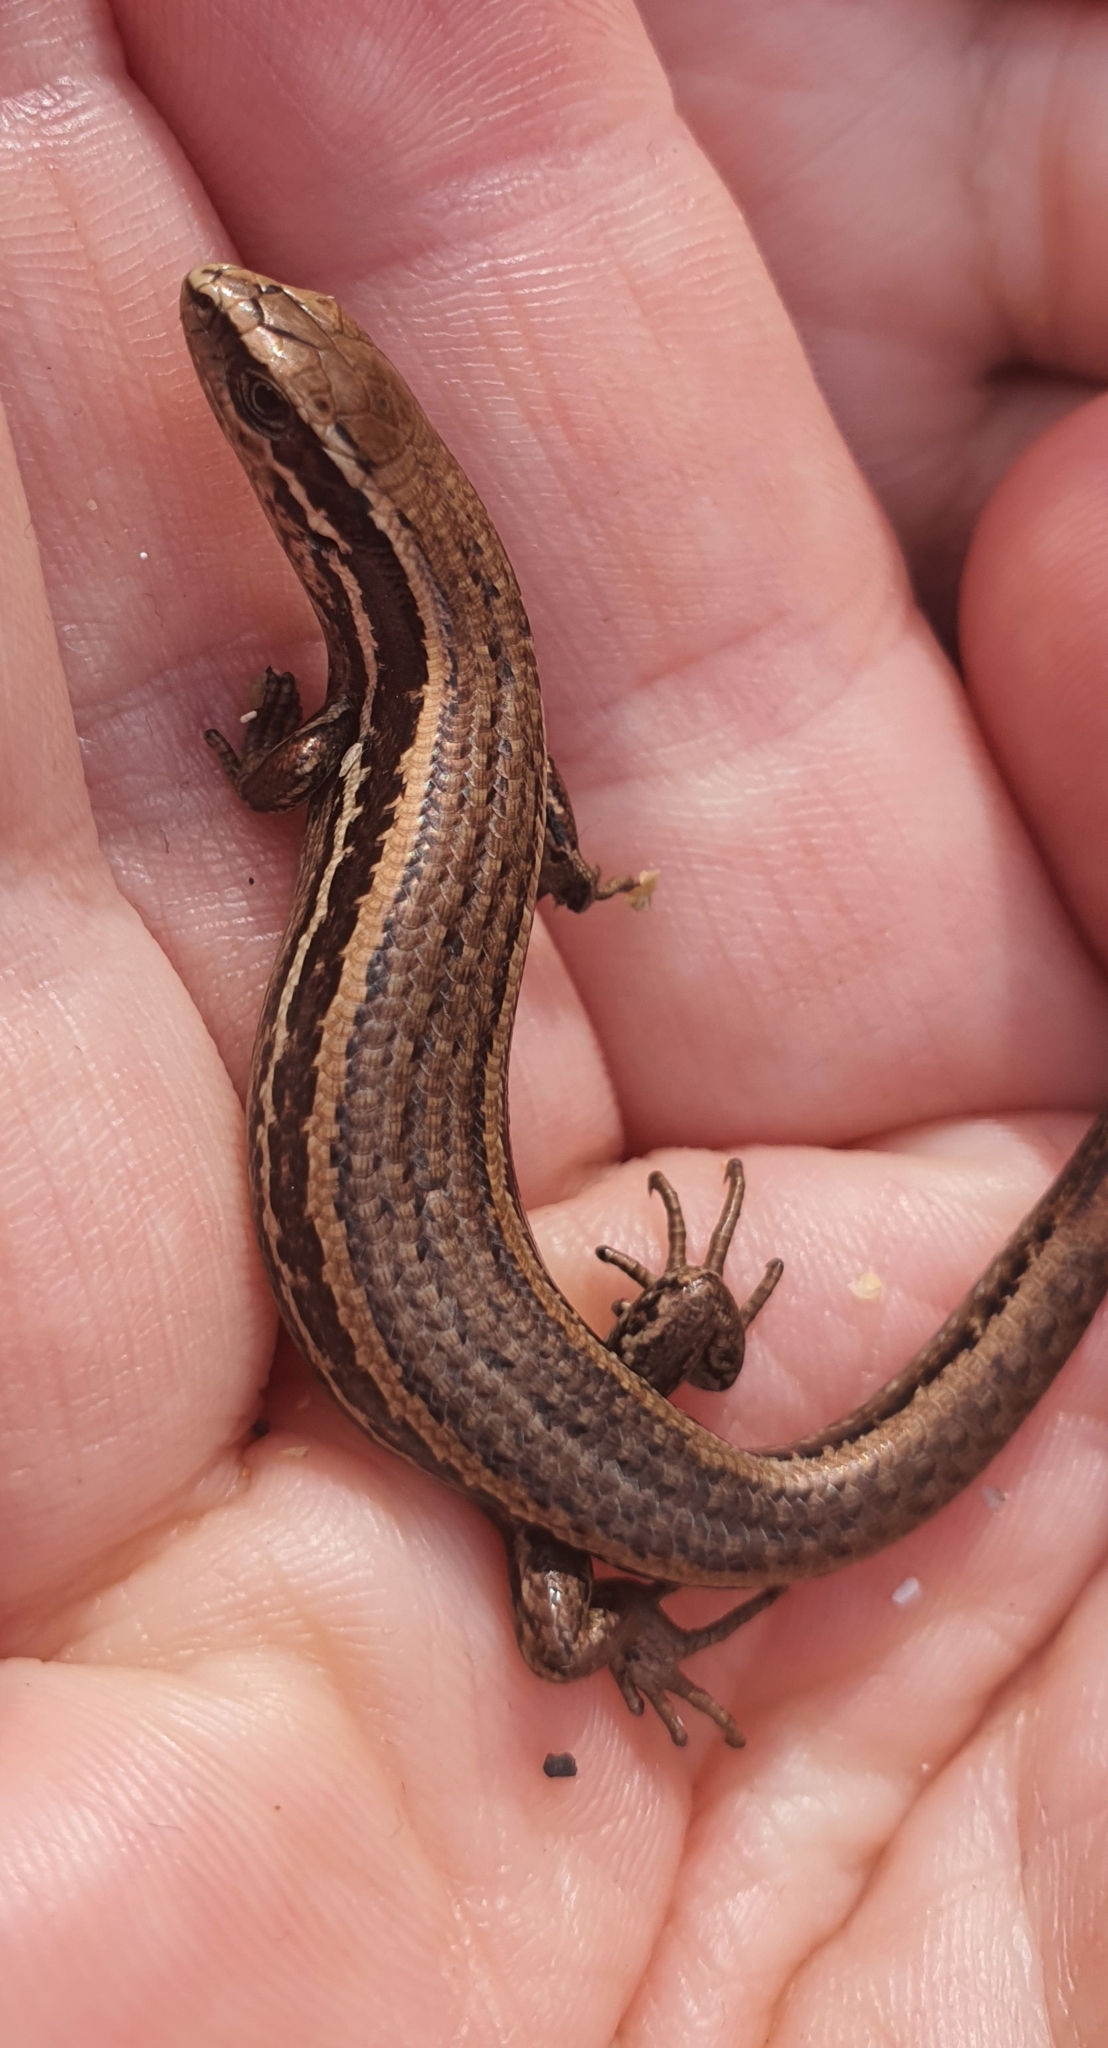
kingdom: Animalia
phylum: Chordata
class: Squamata
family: Scincidae
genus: Oligosoma
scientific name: Oligosoma polychroma
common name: Common new zealand skink
